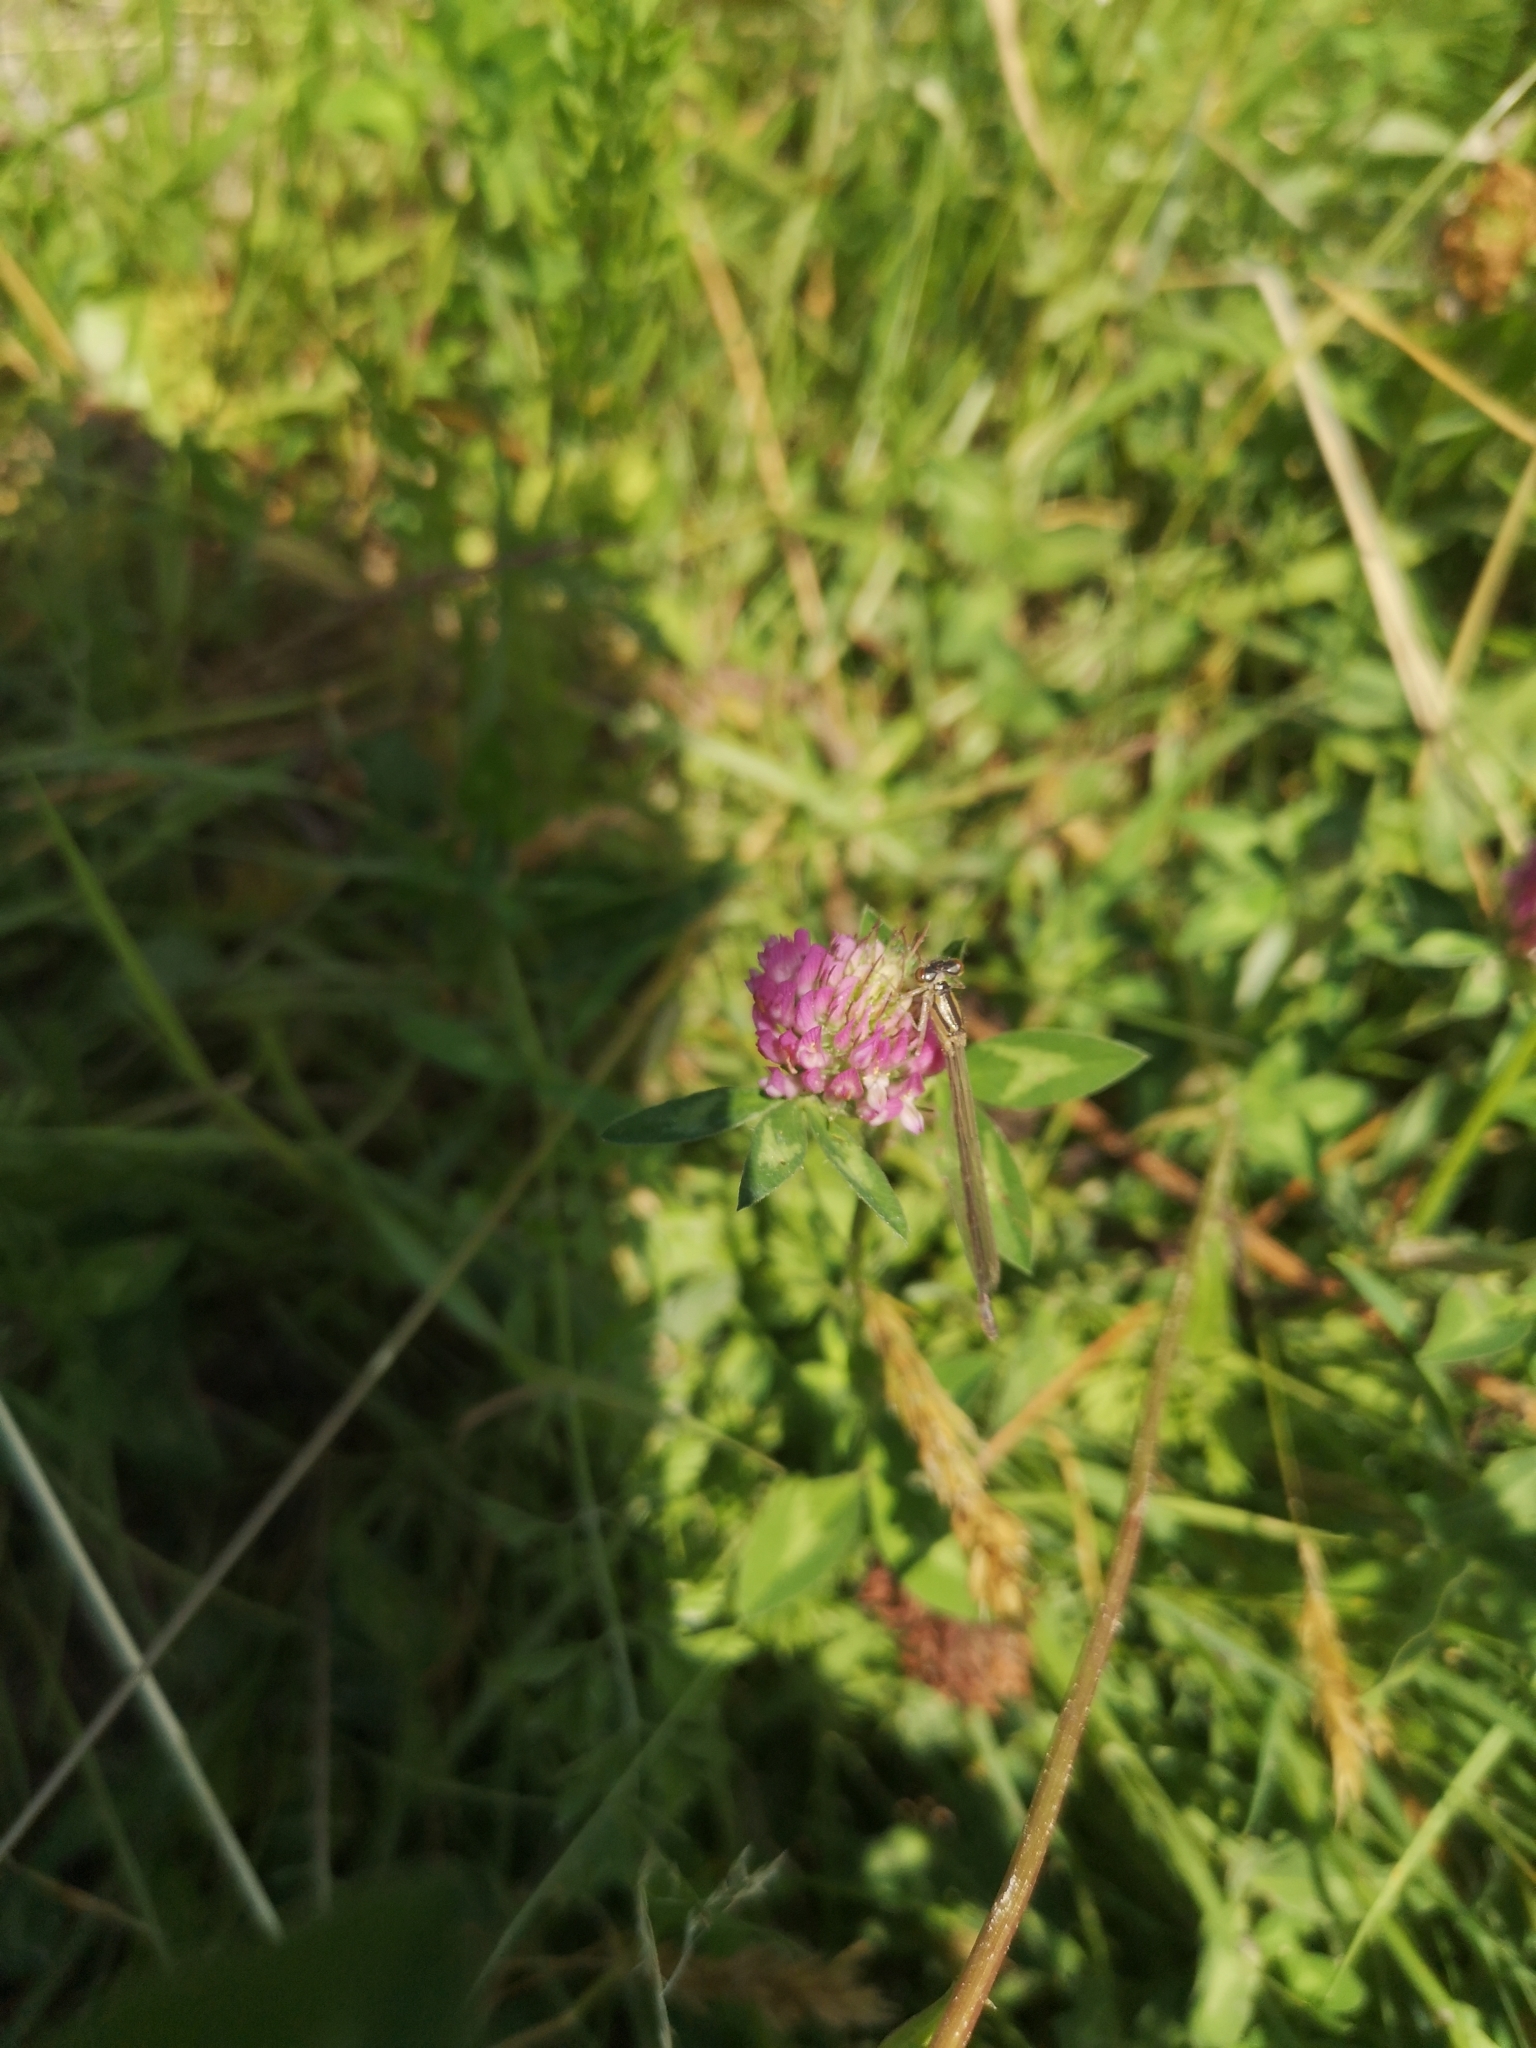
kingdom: Animalia
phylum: Arthropoda
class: Insecta
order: Odonata
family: Coenagrionidae
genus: Enallagma
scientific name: Enallagma cyathigerum
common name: Common blue damselfly
